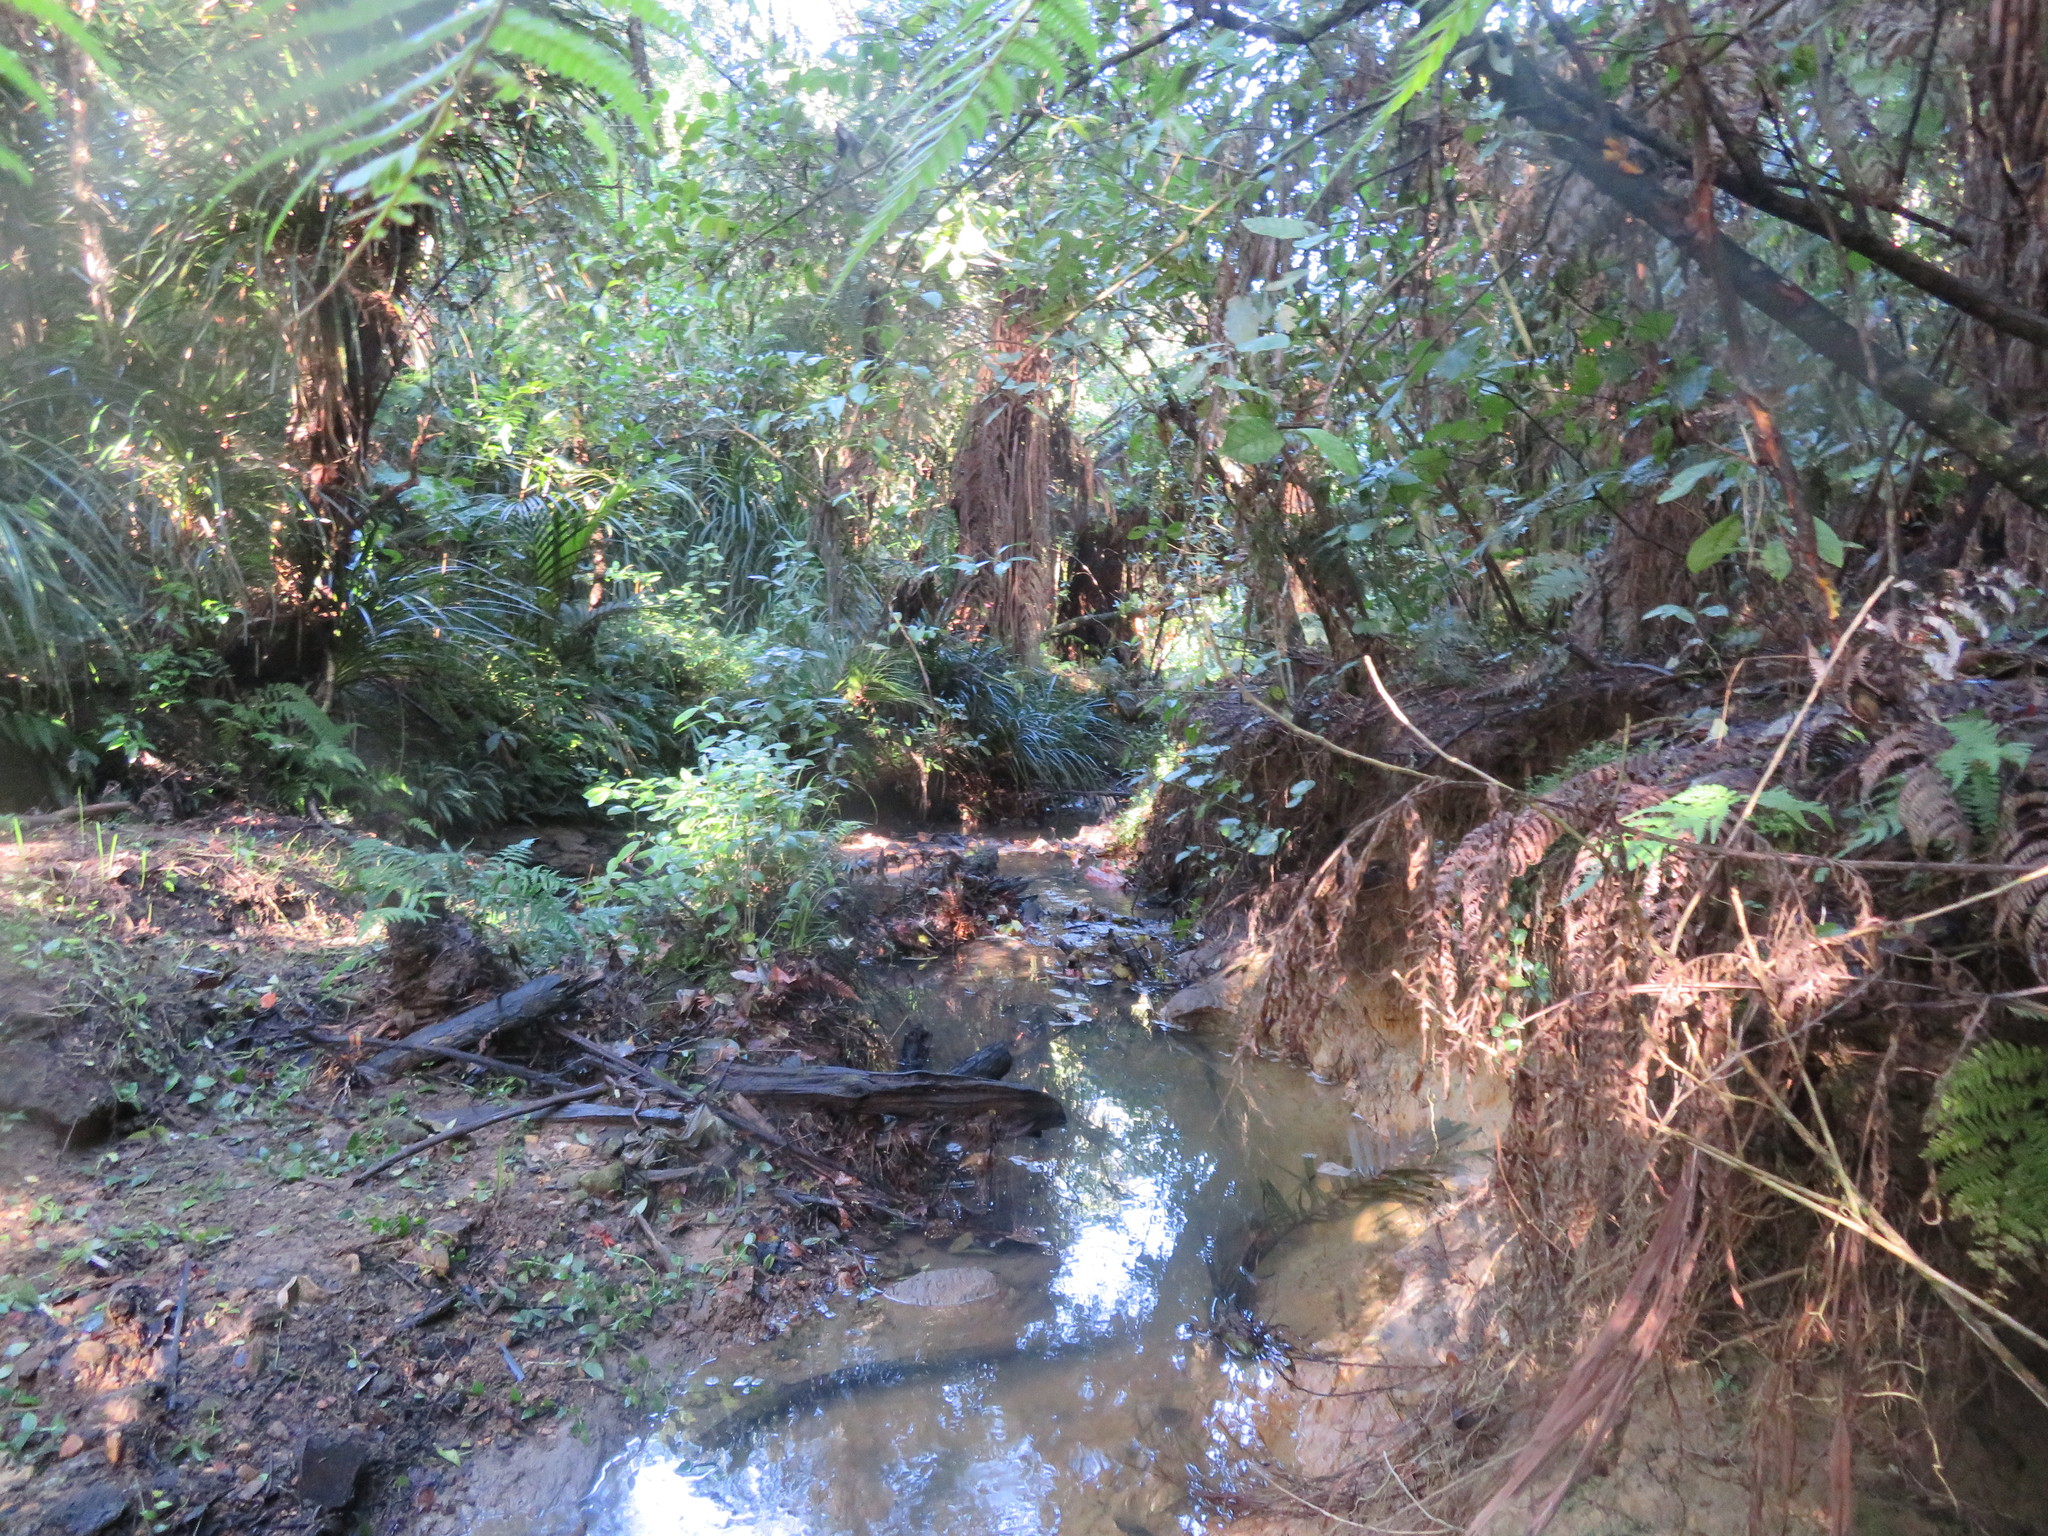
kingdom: Plantae
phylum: Tracheophyta
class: Liliopsida
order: Commelinales
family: Commelinaceae
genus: Tradescantia
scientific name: Tradescantia fluminensis
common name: Wandering-jew
